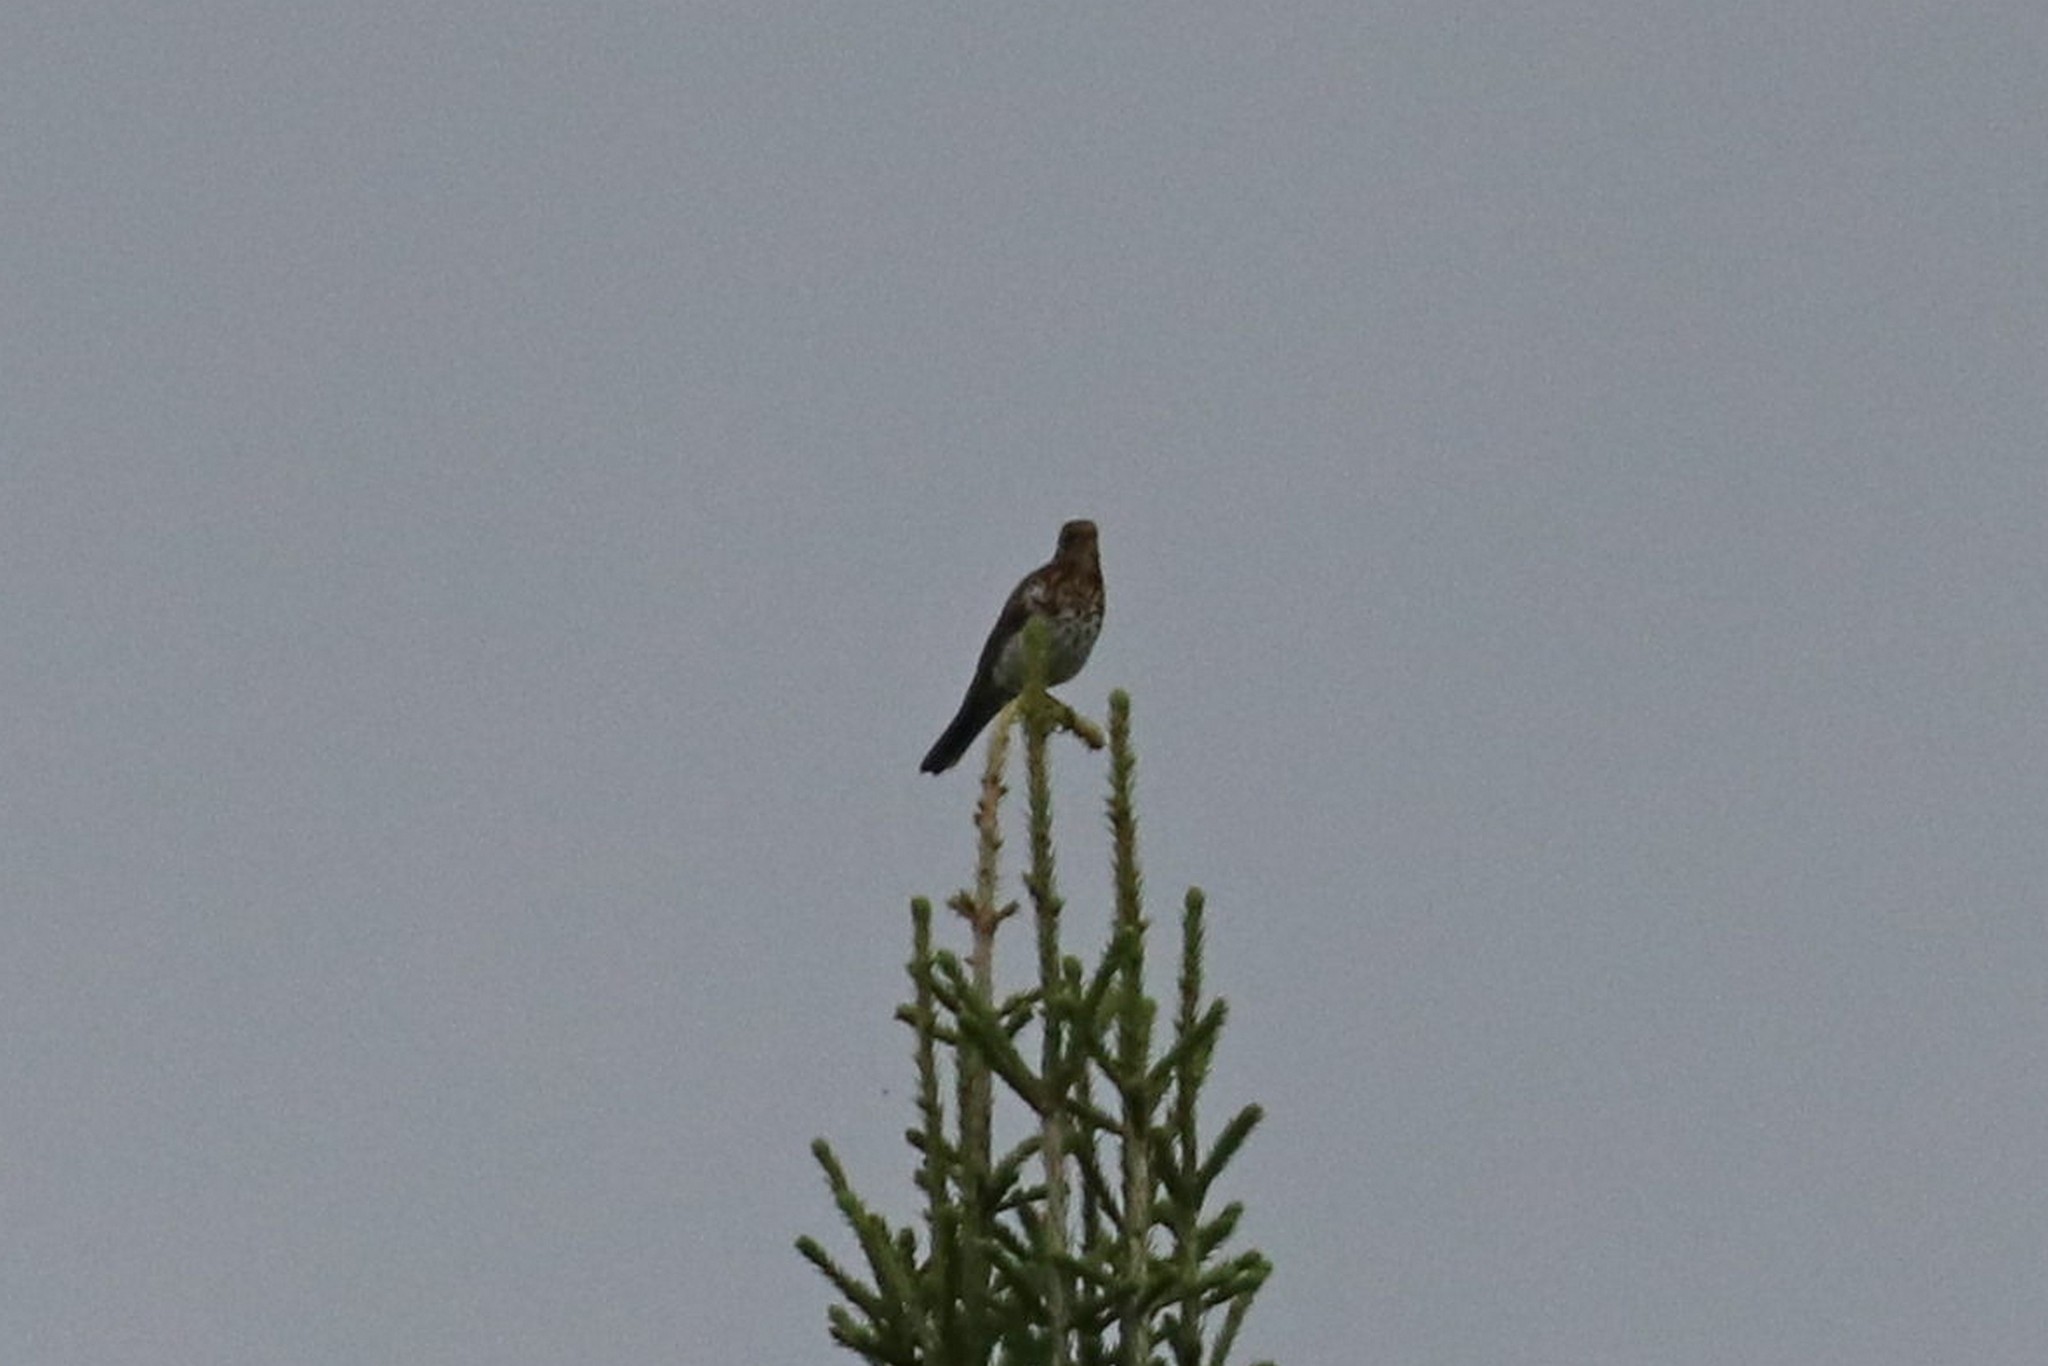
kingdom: Animalia
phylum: Chordata
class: Aves
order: Passeriformes
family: Turdidae
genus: Turdus
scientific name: Turdus pilaris
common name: Fieldfare
